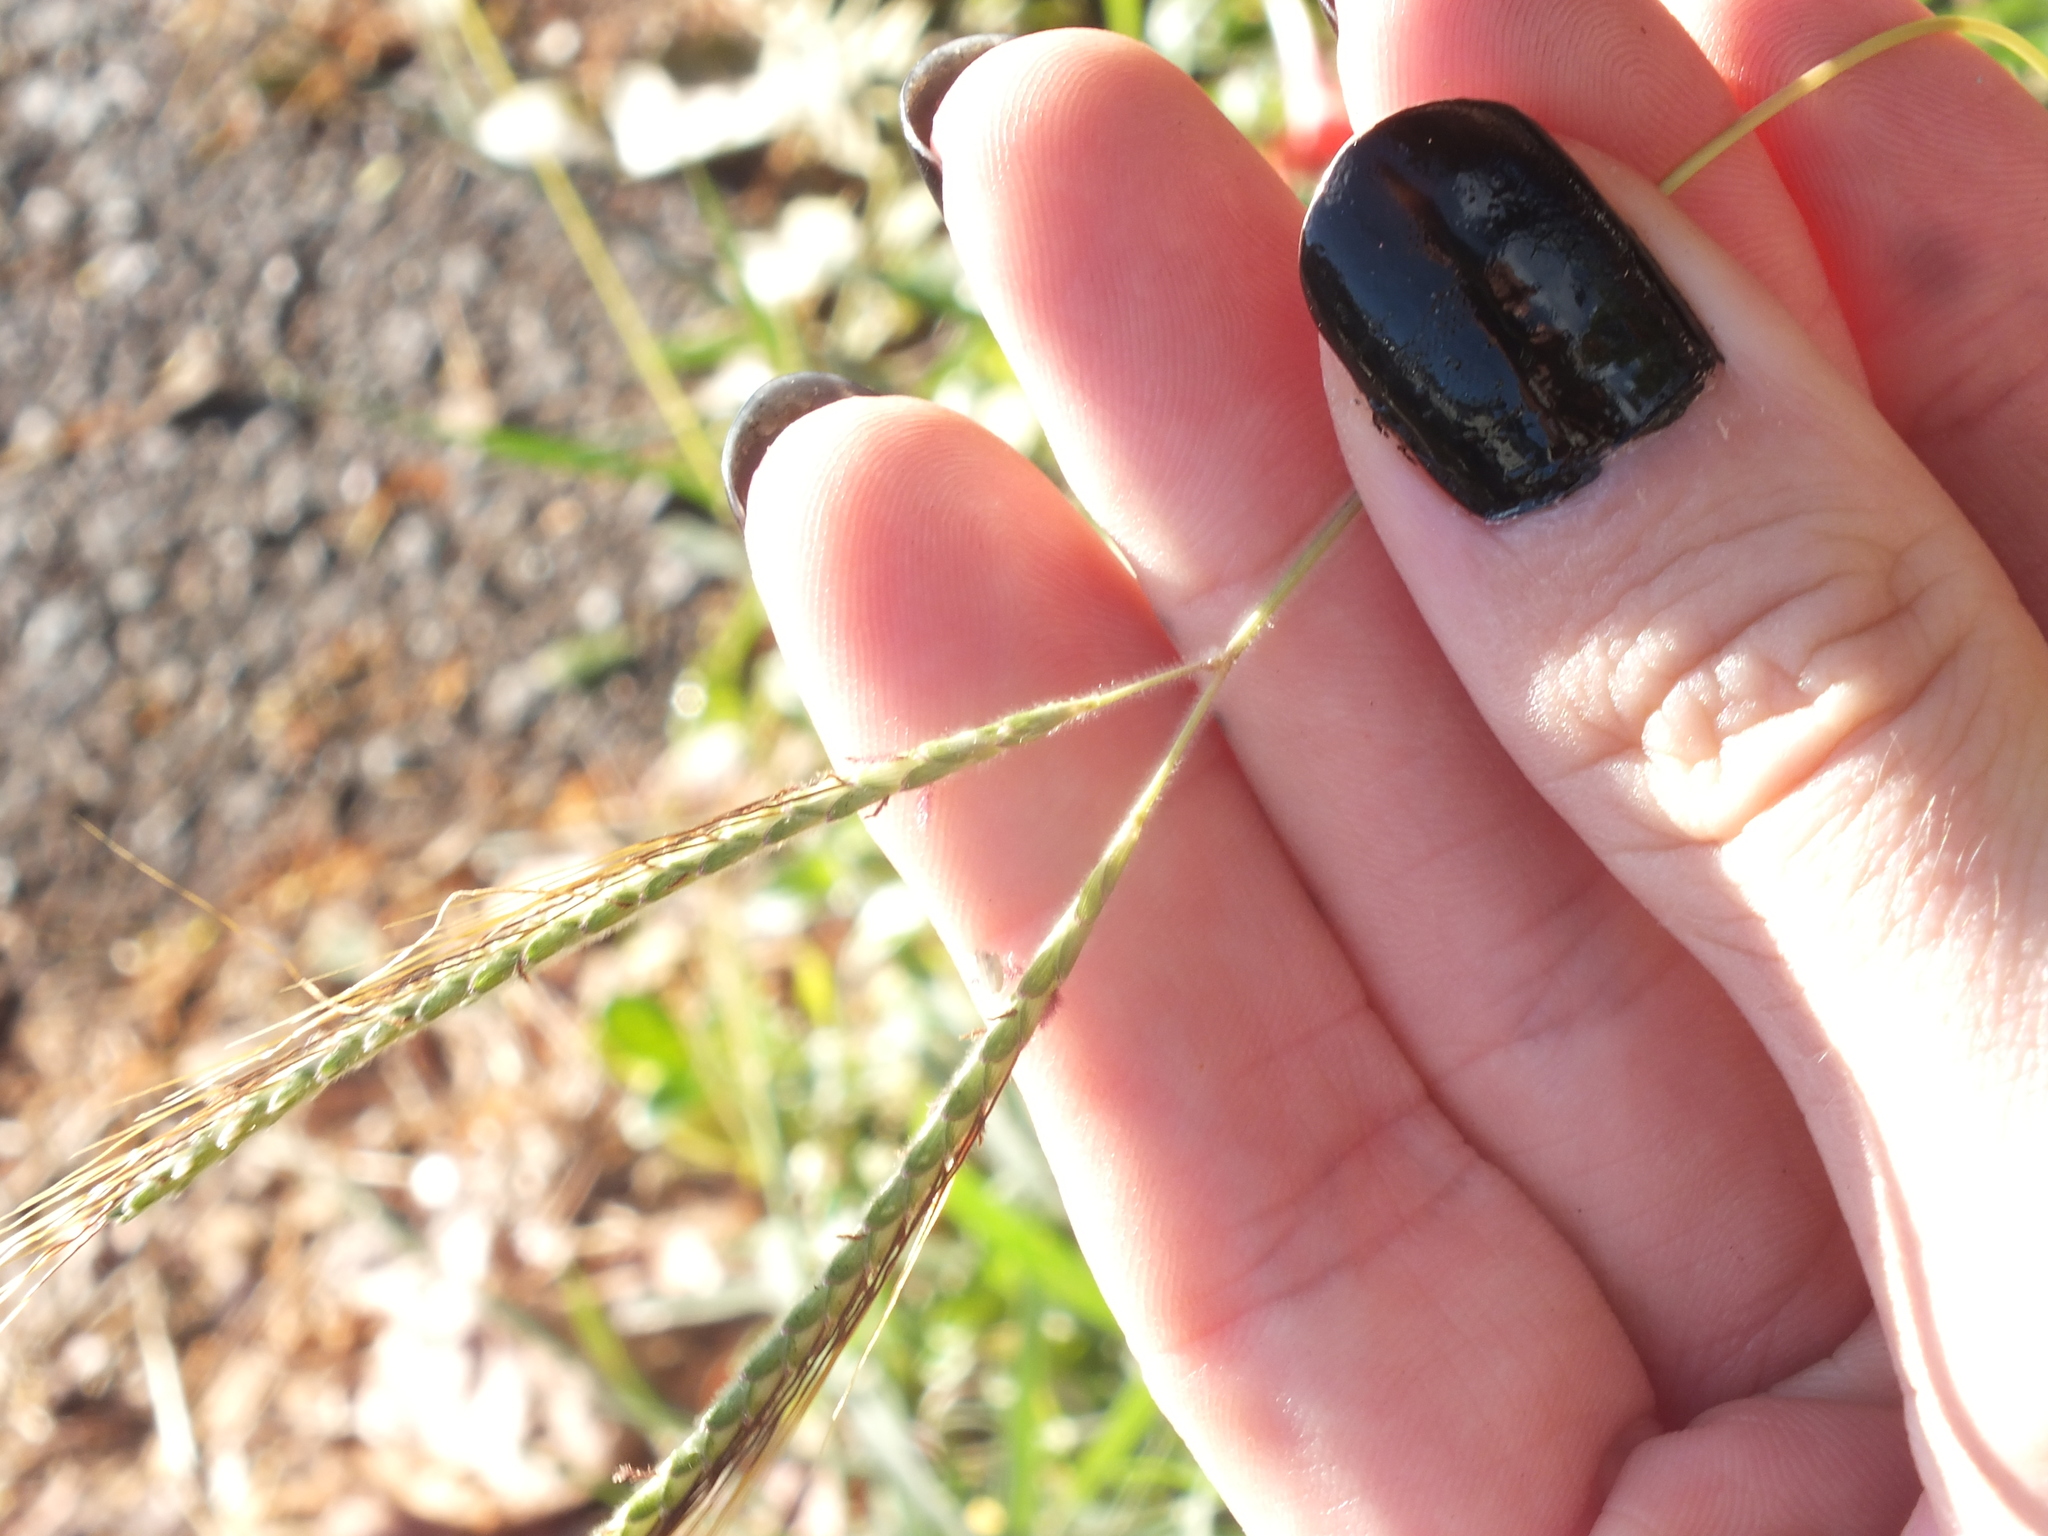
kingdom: Plantae
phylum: Tracheophyta
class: Liliopsida
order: Poales
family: Poaceae
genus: Dichanthium
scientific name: Dichanthium aristatum
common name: Angleton bluestem
